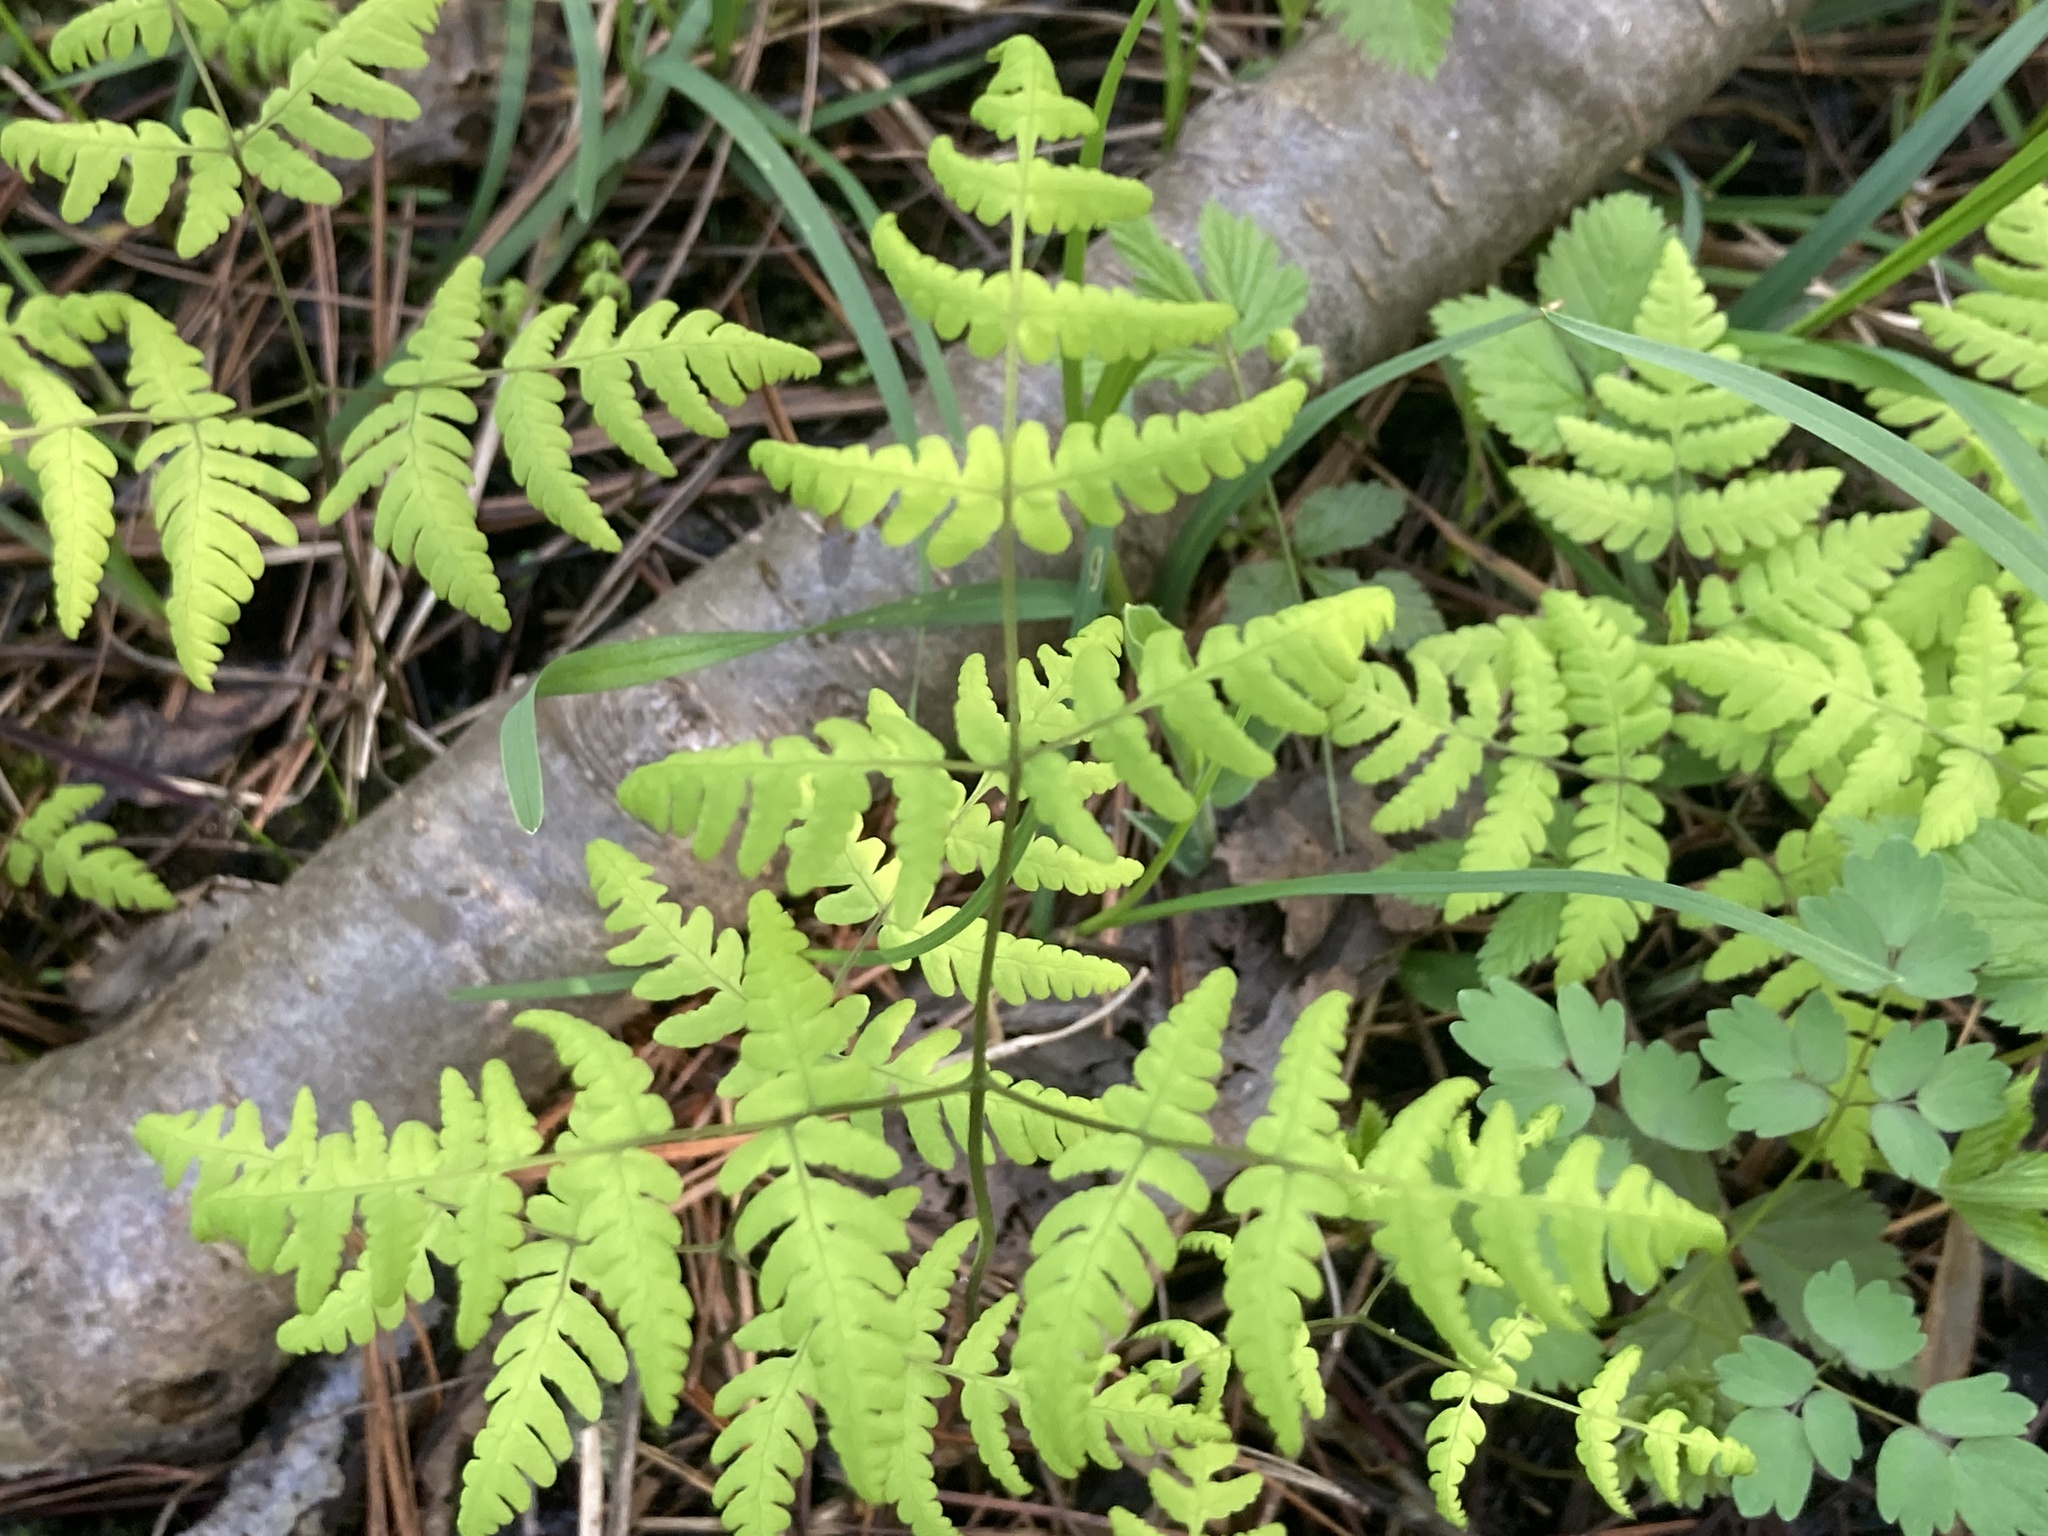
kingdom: Plantae
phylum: Tracheophyta
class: Polypodiopsida
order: Polypodiales
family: Cystopteridaceae
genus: Gymnocarpium
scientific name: Gymnocarpium dryopteris
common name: Oak fern
